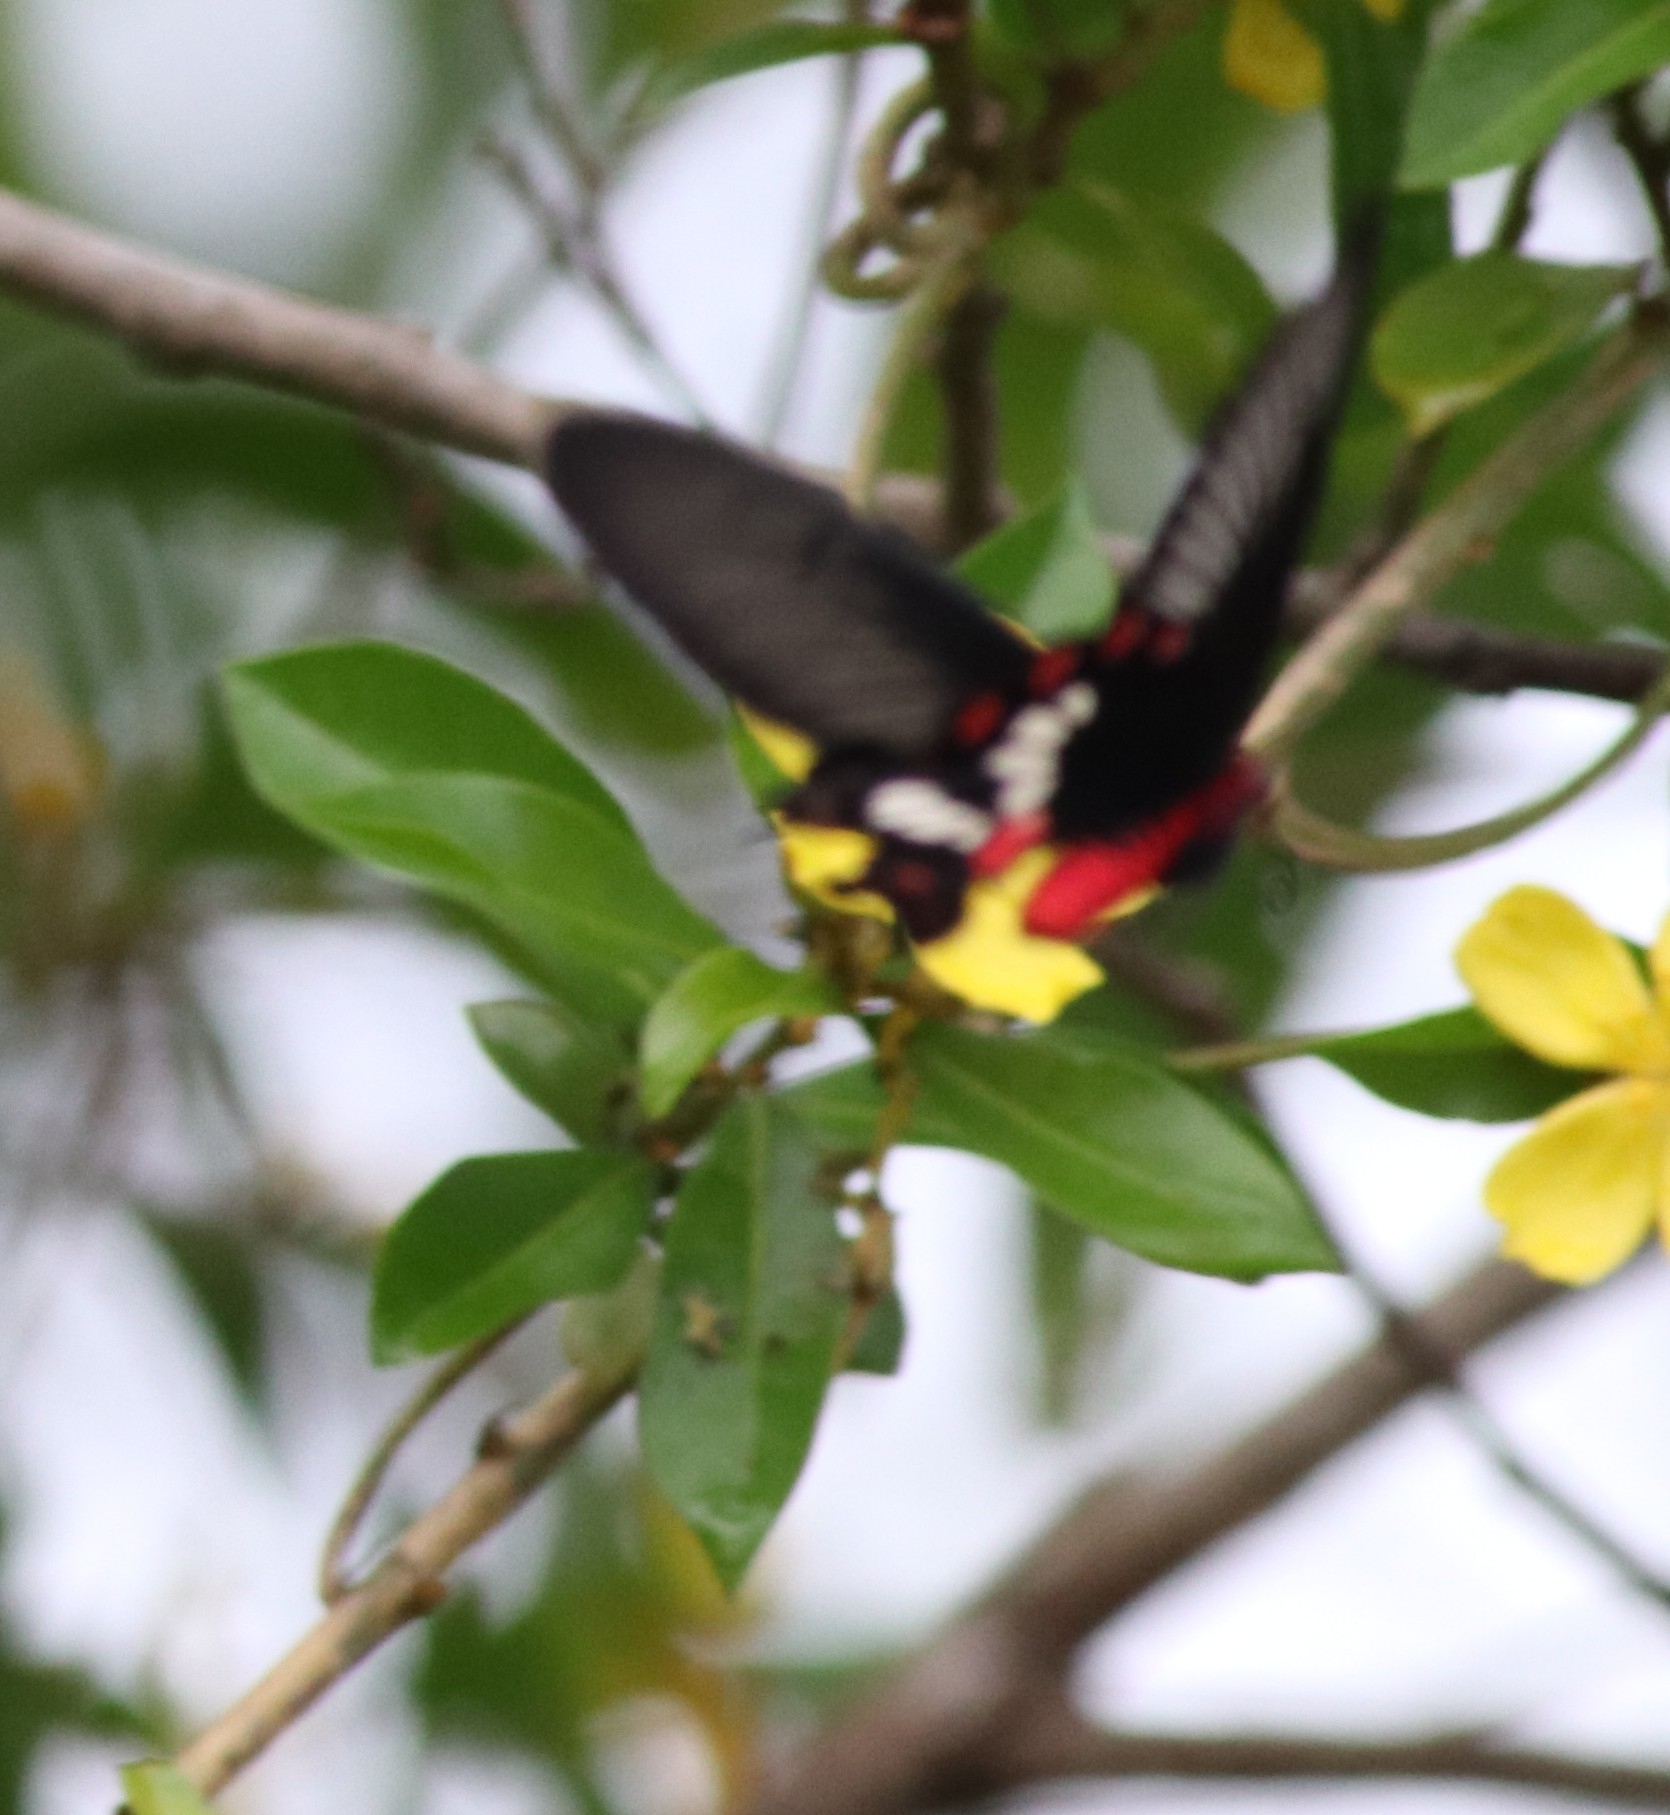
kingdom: Animalia
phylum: Arthropoda
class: Insecta
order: Lepidoptera
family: Papilionidae
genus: Pachliopta
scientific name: Pachliopta aristolochiae
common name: Common rose
